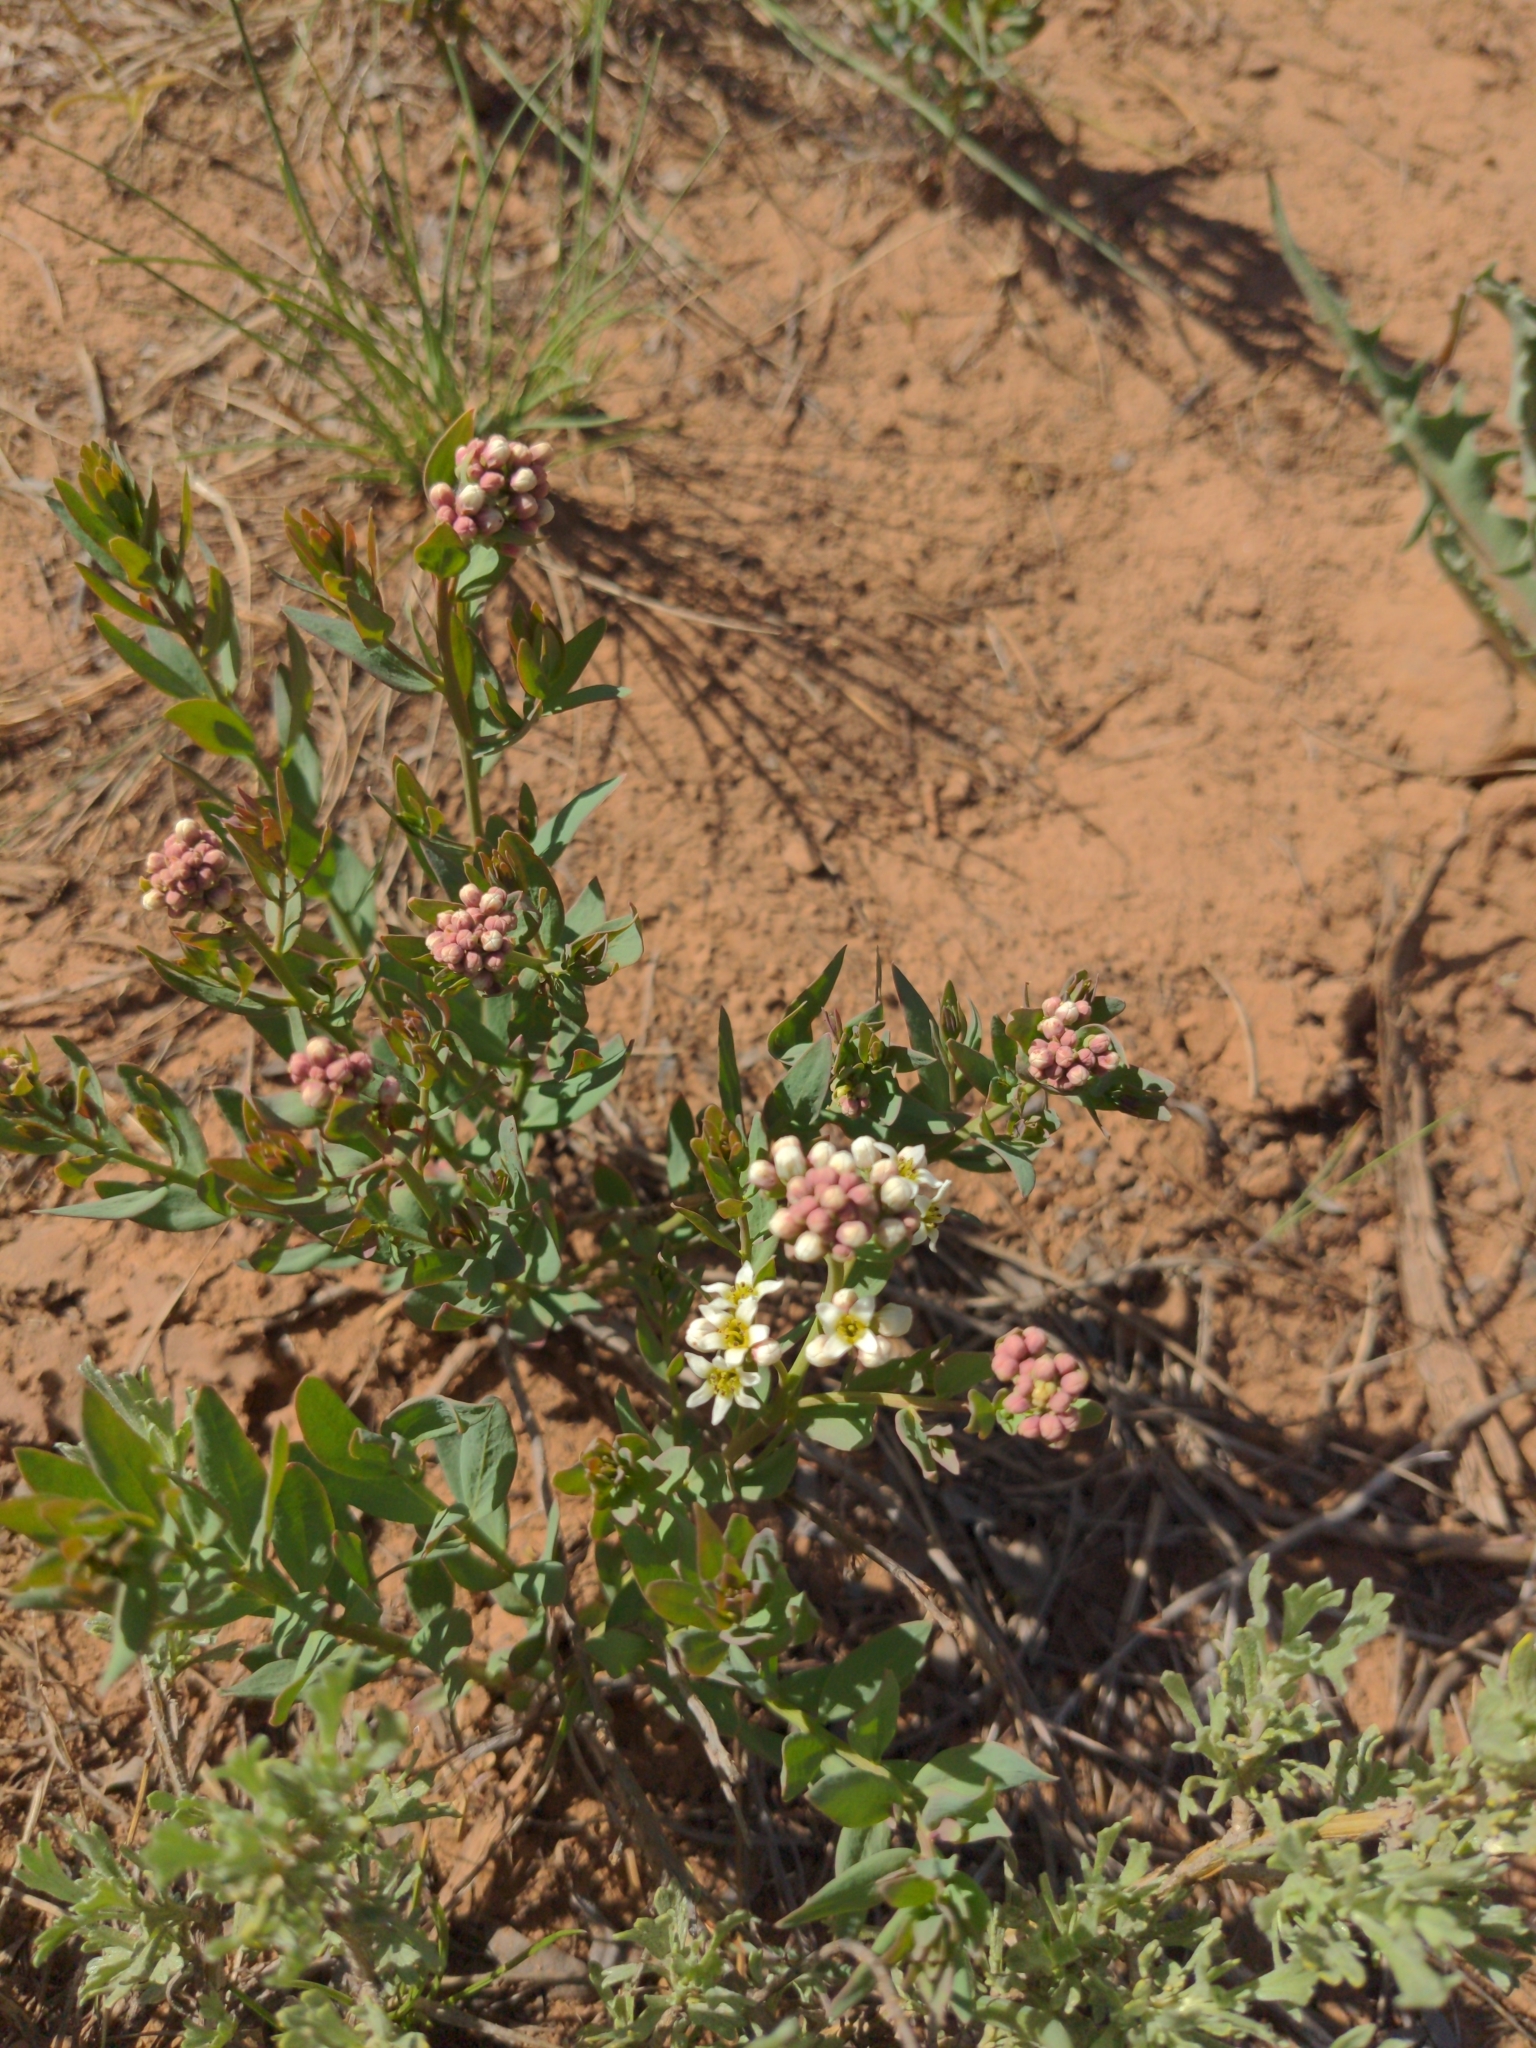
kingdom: Plantae
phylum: Tracheophyta
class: Magnoliopsida
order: Santalales
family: Comandraceae
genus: Comandra
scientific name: Comandra umbellata
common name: Bastard toadflax
